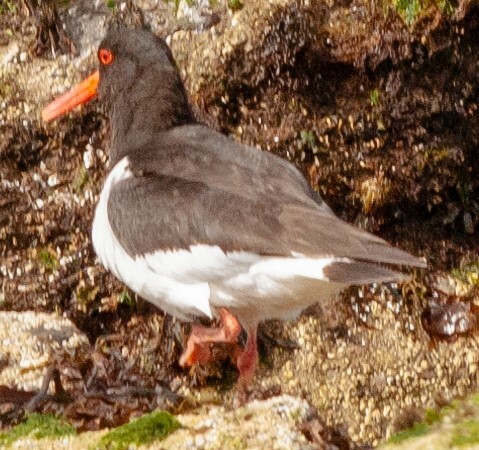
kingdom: Animalia
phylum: Chordata
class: Aves
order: Charadriiformes
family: Haematopodidae
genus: Haematopus
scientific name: Haematopus ostralegus
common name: Eurasian oystercatcher
